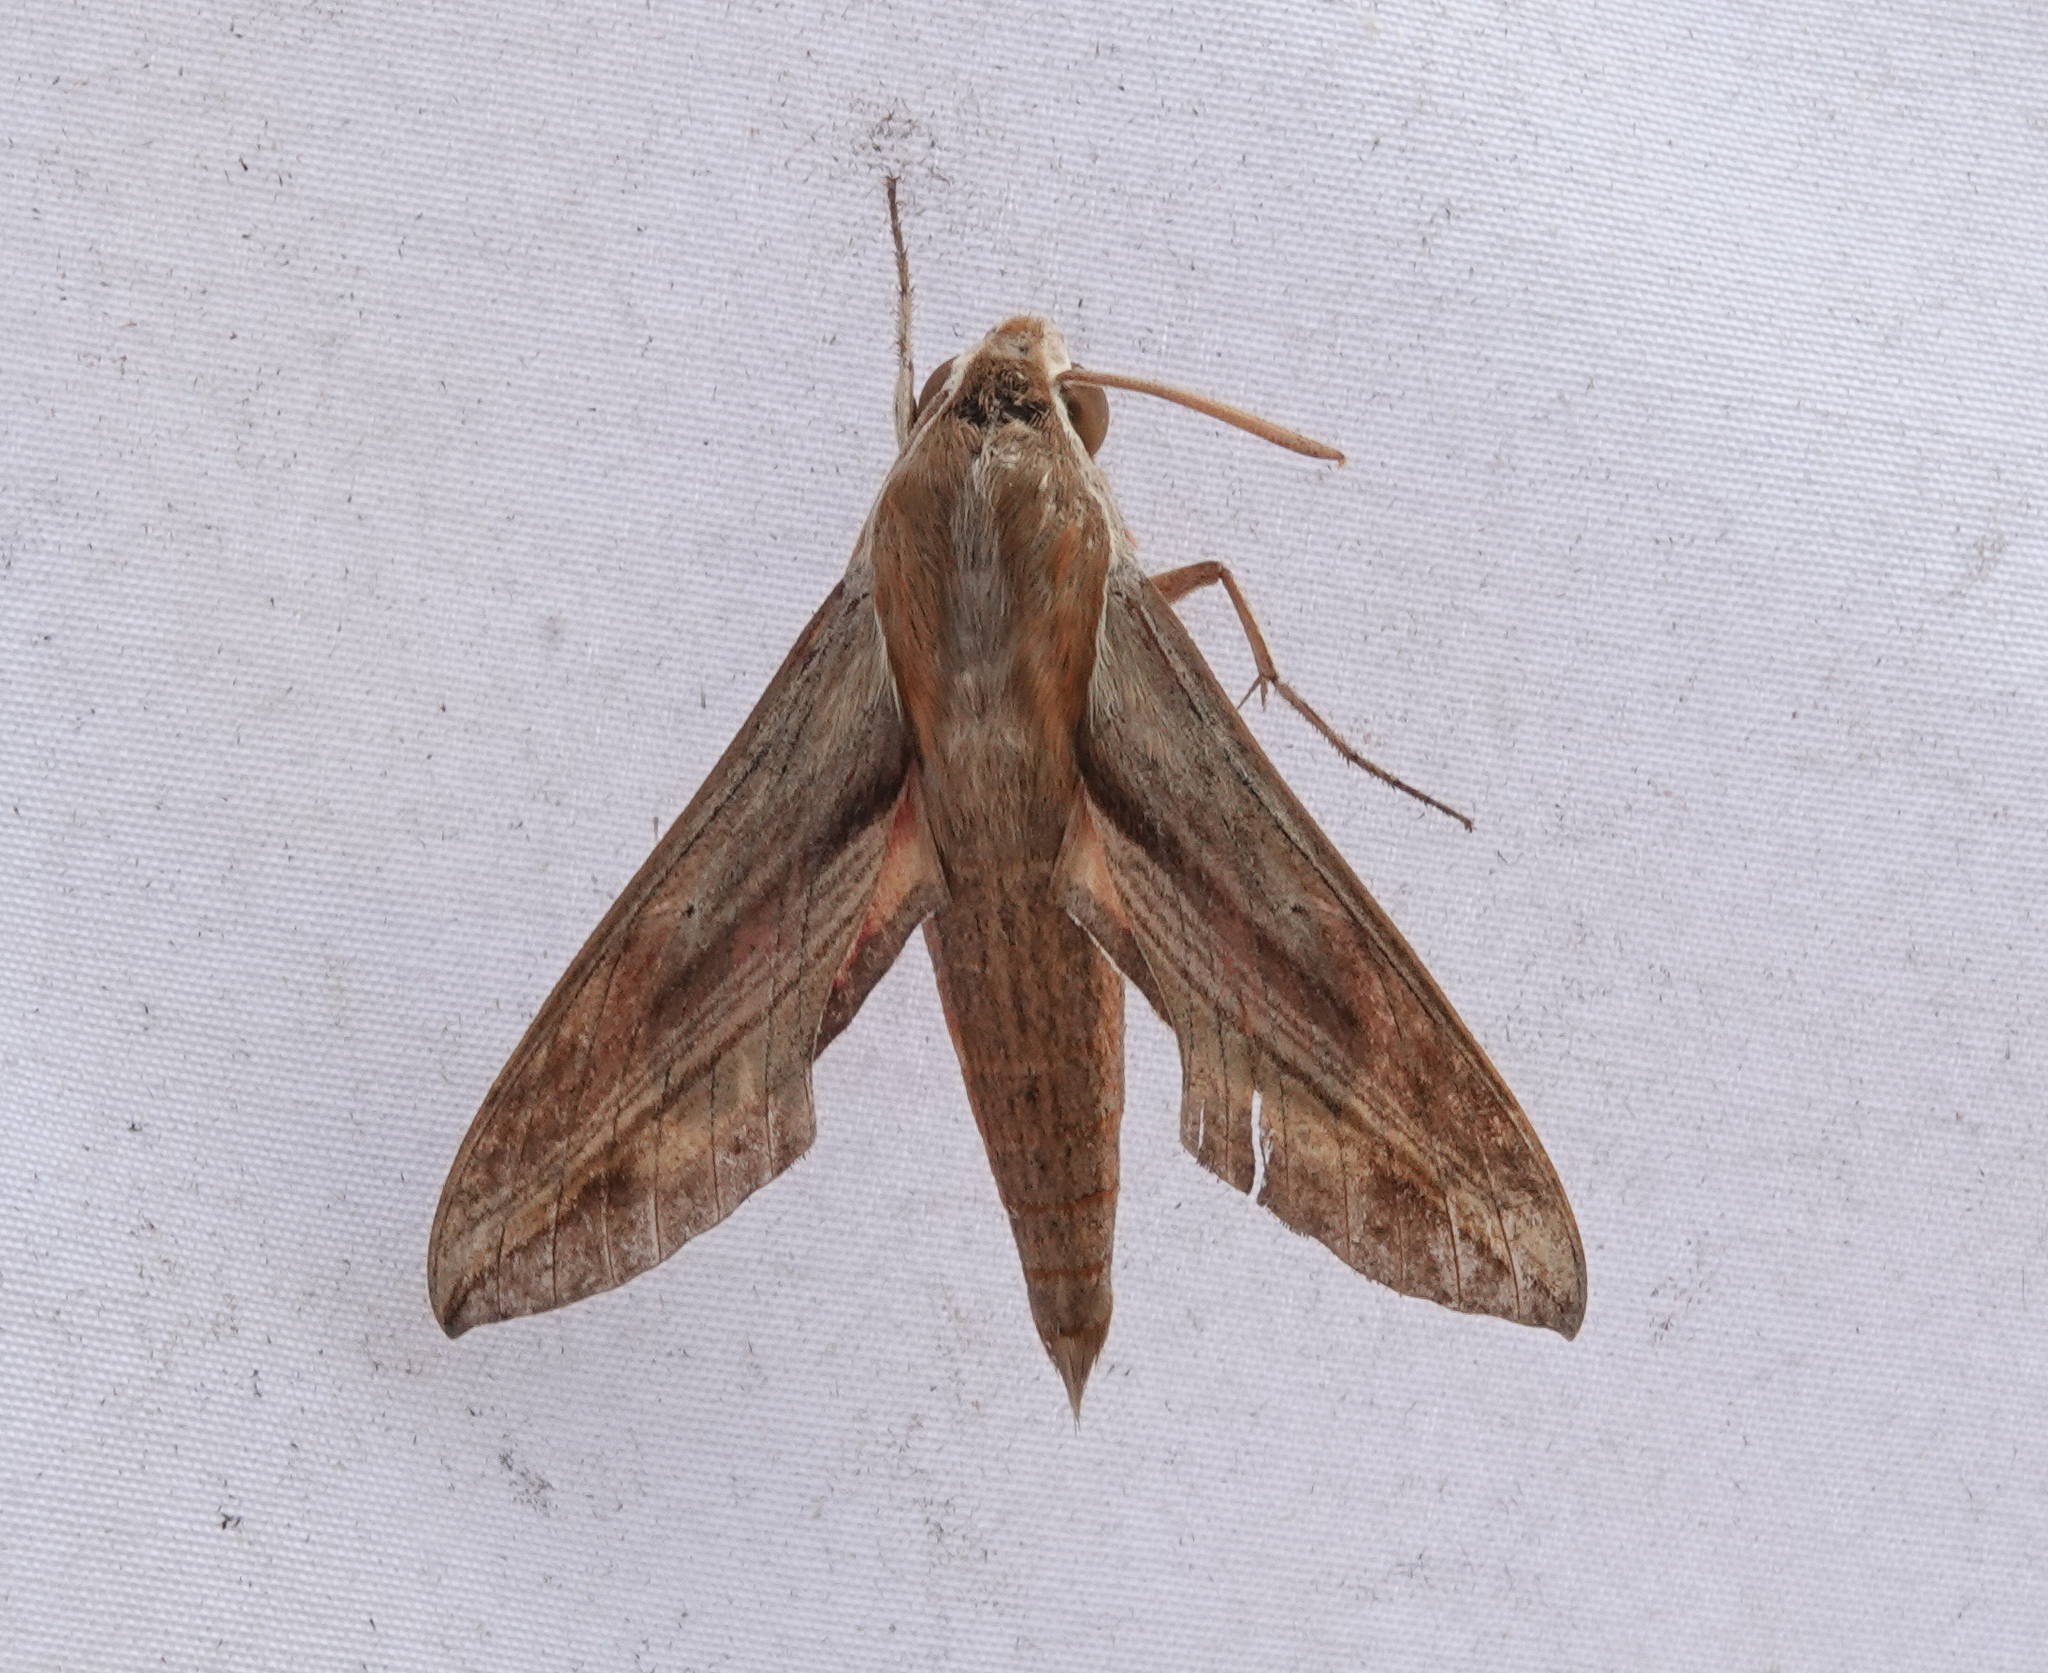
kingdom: Animalia
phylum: Arthropoda
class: Insecta
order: Lepidoptera
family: Sphingidae
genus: Hippotion
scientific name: Hippotion rosetta
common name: Vine hawk moth
